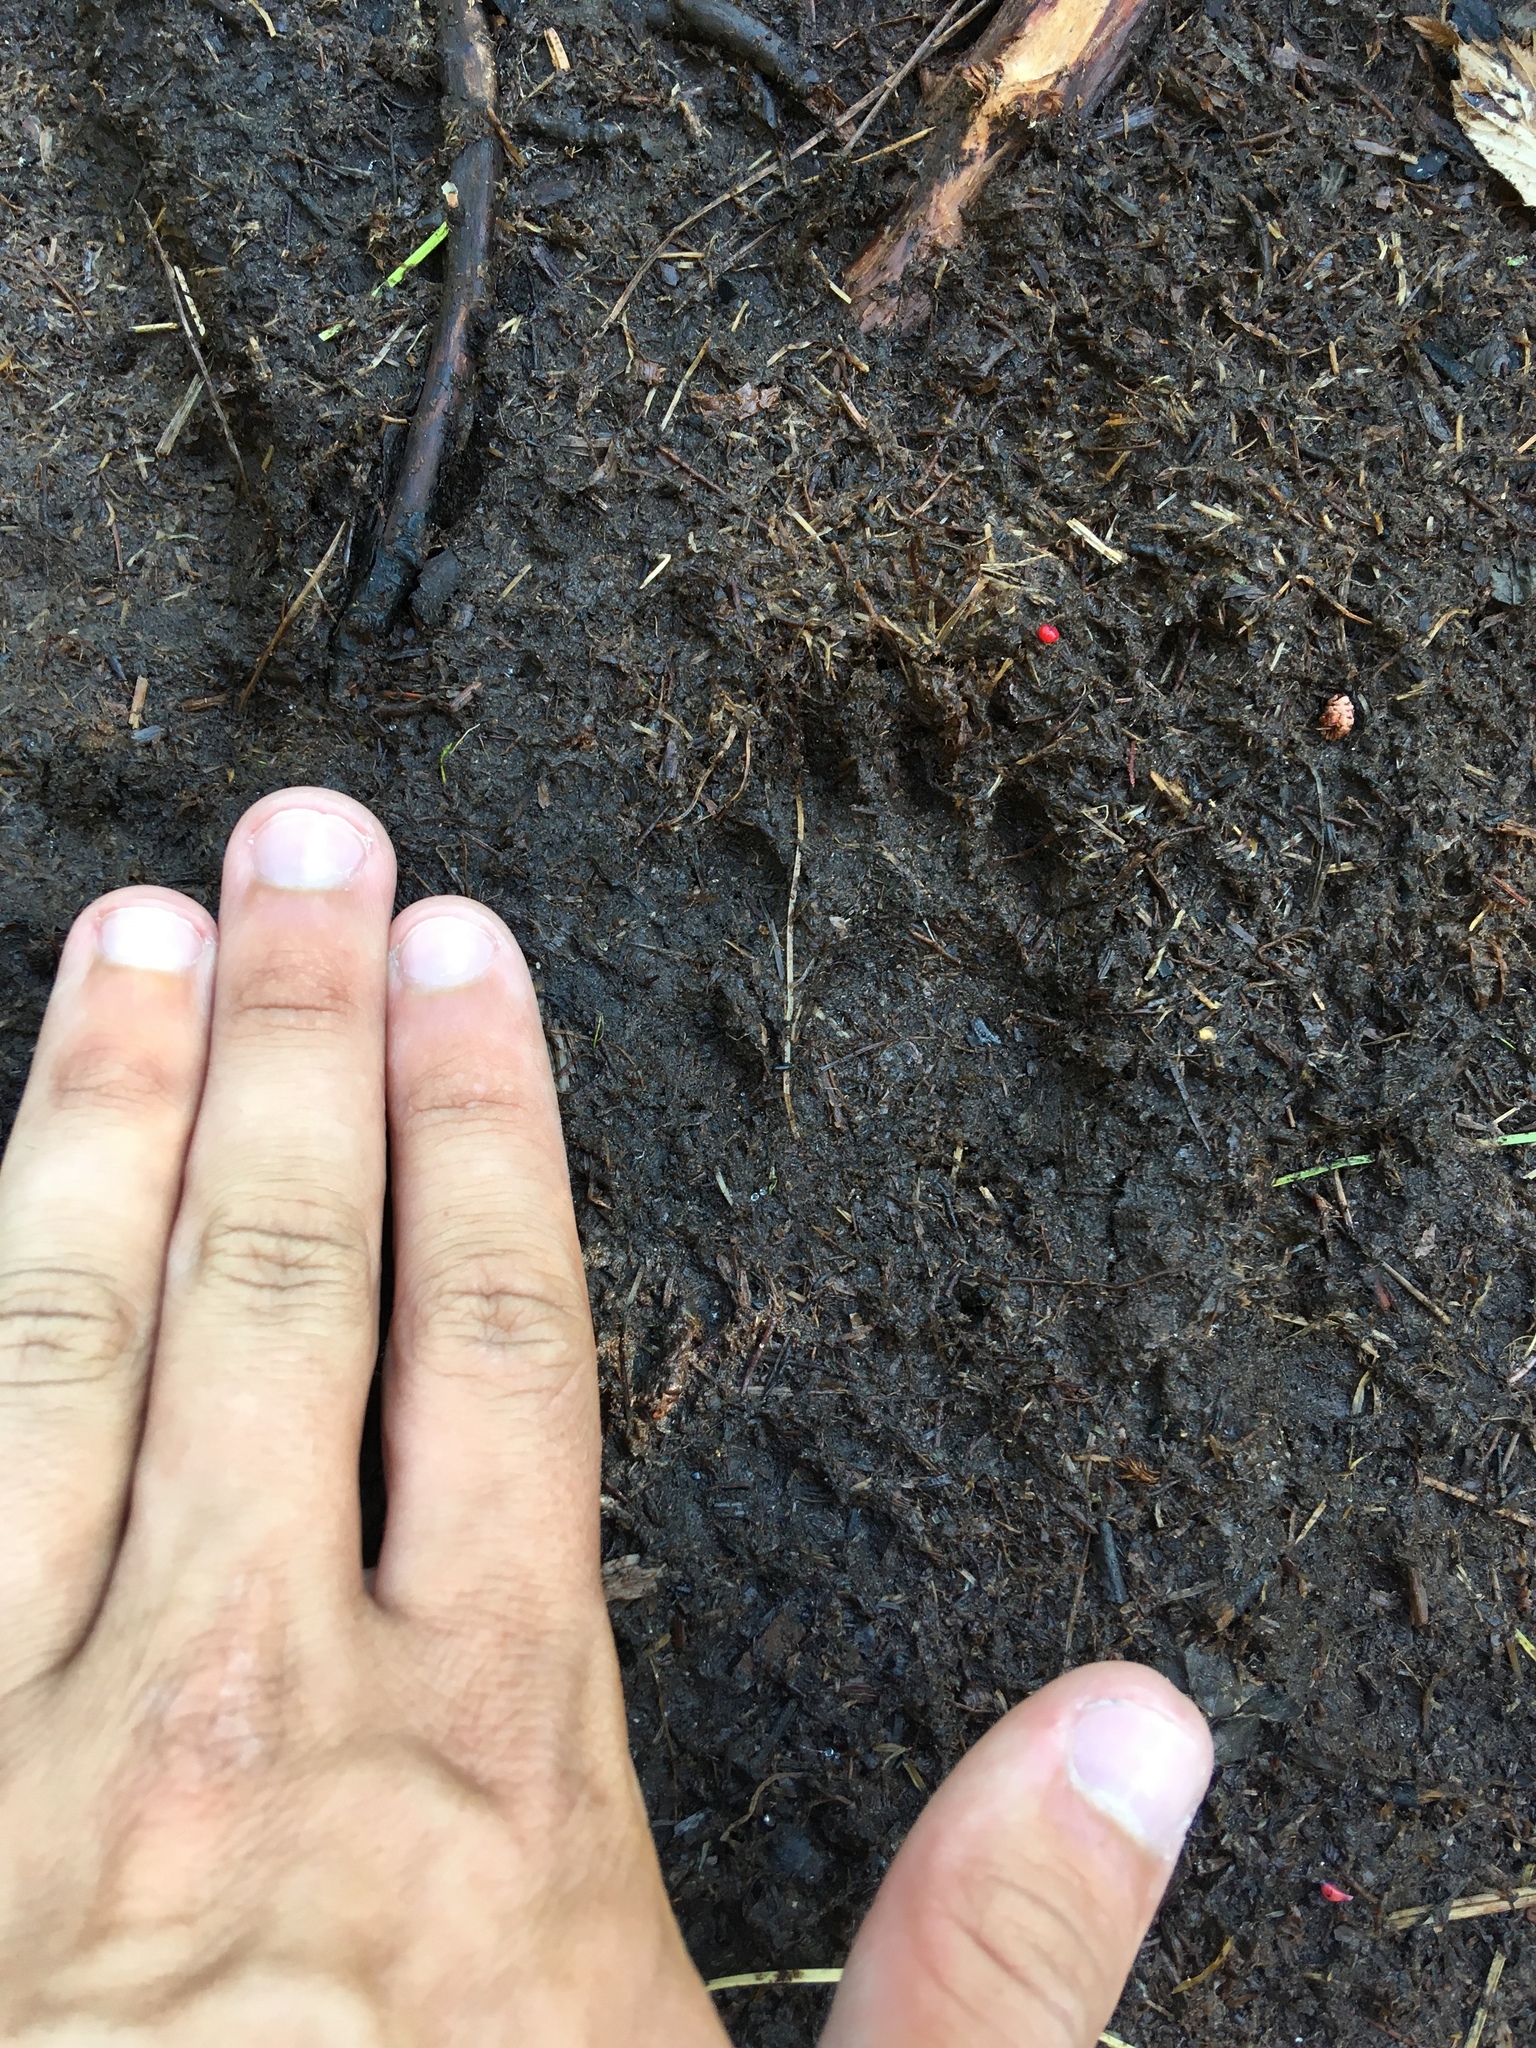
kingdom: Animalia
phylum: Chordata
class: Mammalia
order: Carnivora
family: Procyonidae
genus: Procyon
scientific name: Procyon lotor
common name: Raccoon
